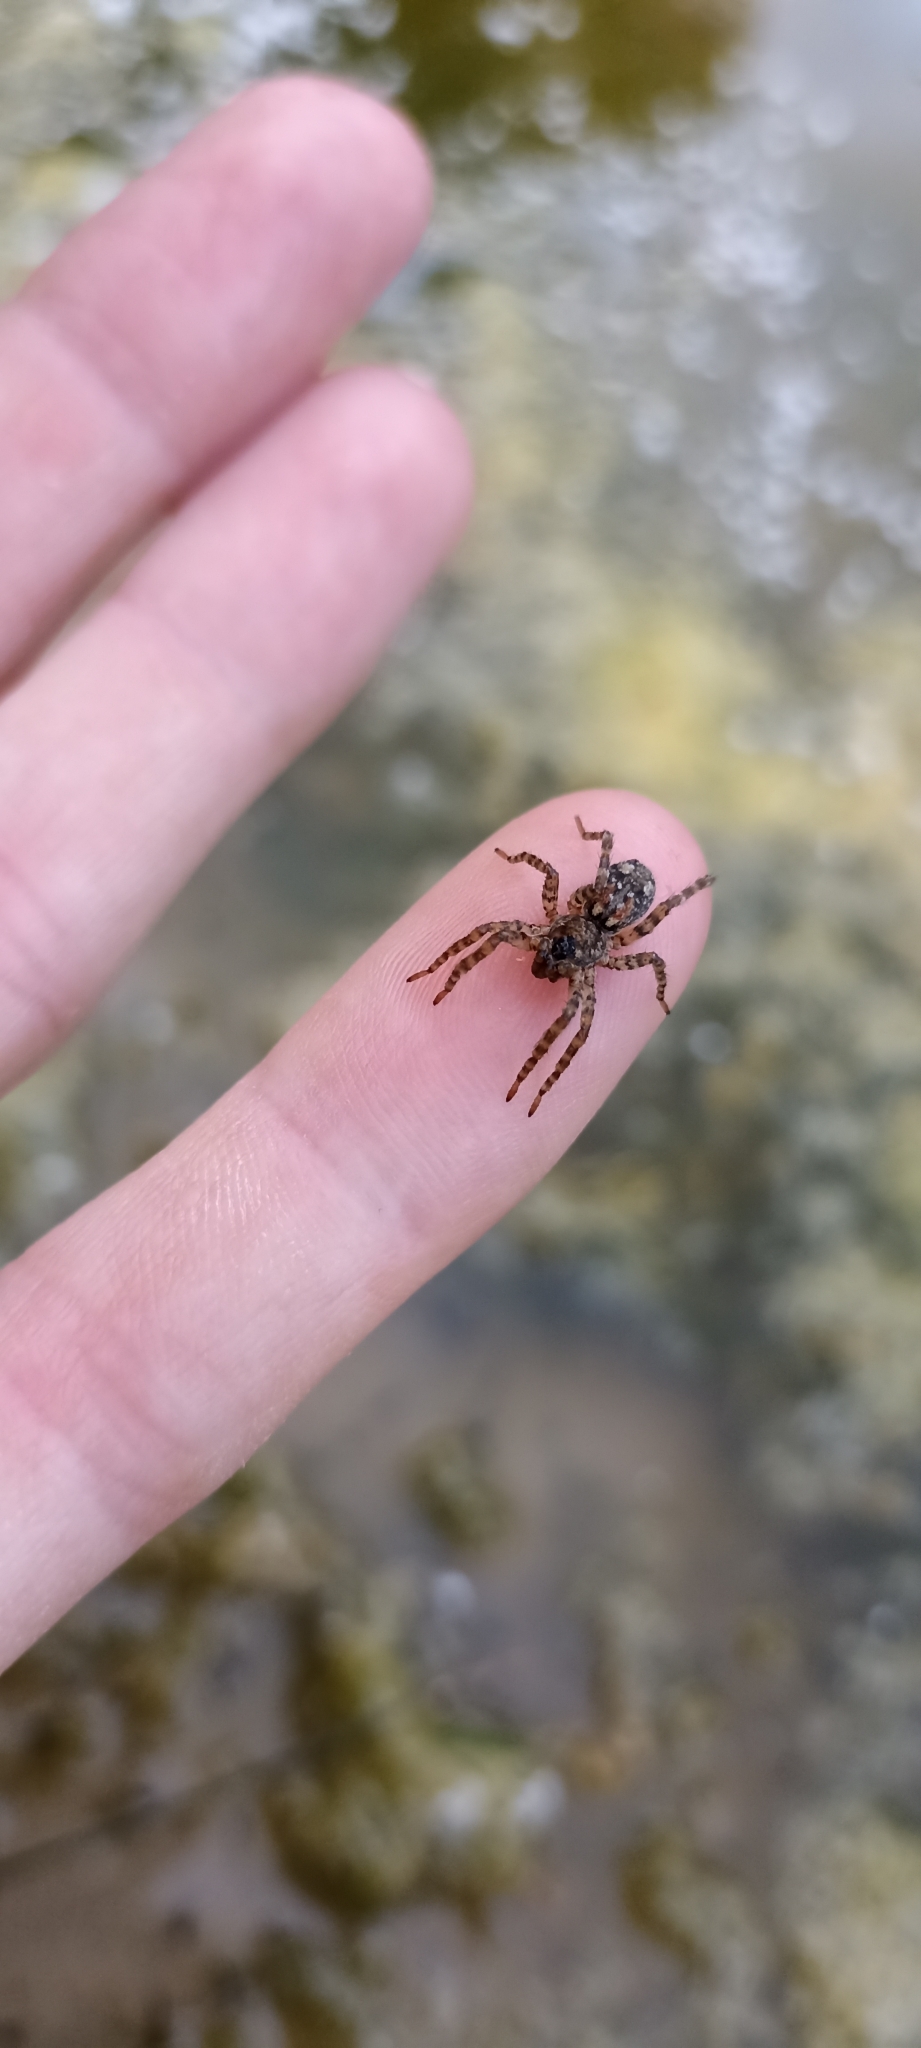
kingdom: Animalia
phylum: Arthropoda
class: Arachnida
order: Araneae
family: Lycosidae
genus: Arctosa
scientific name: Arctosa perita
